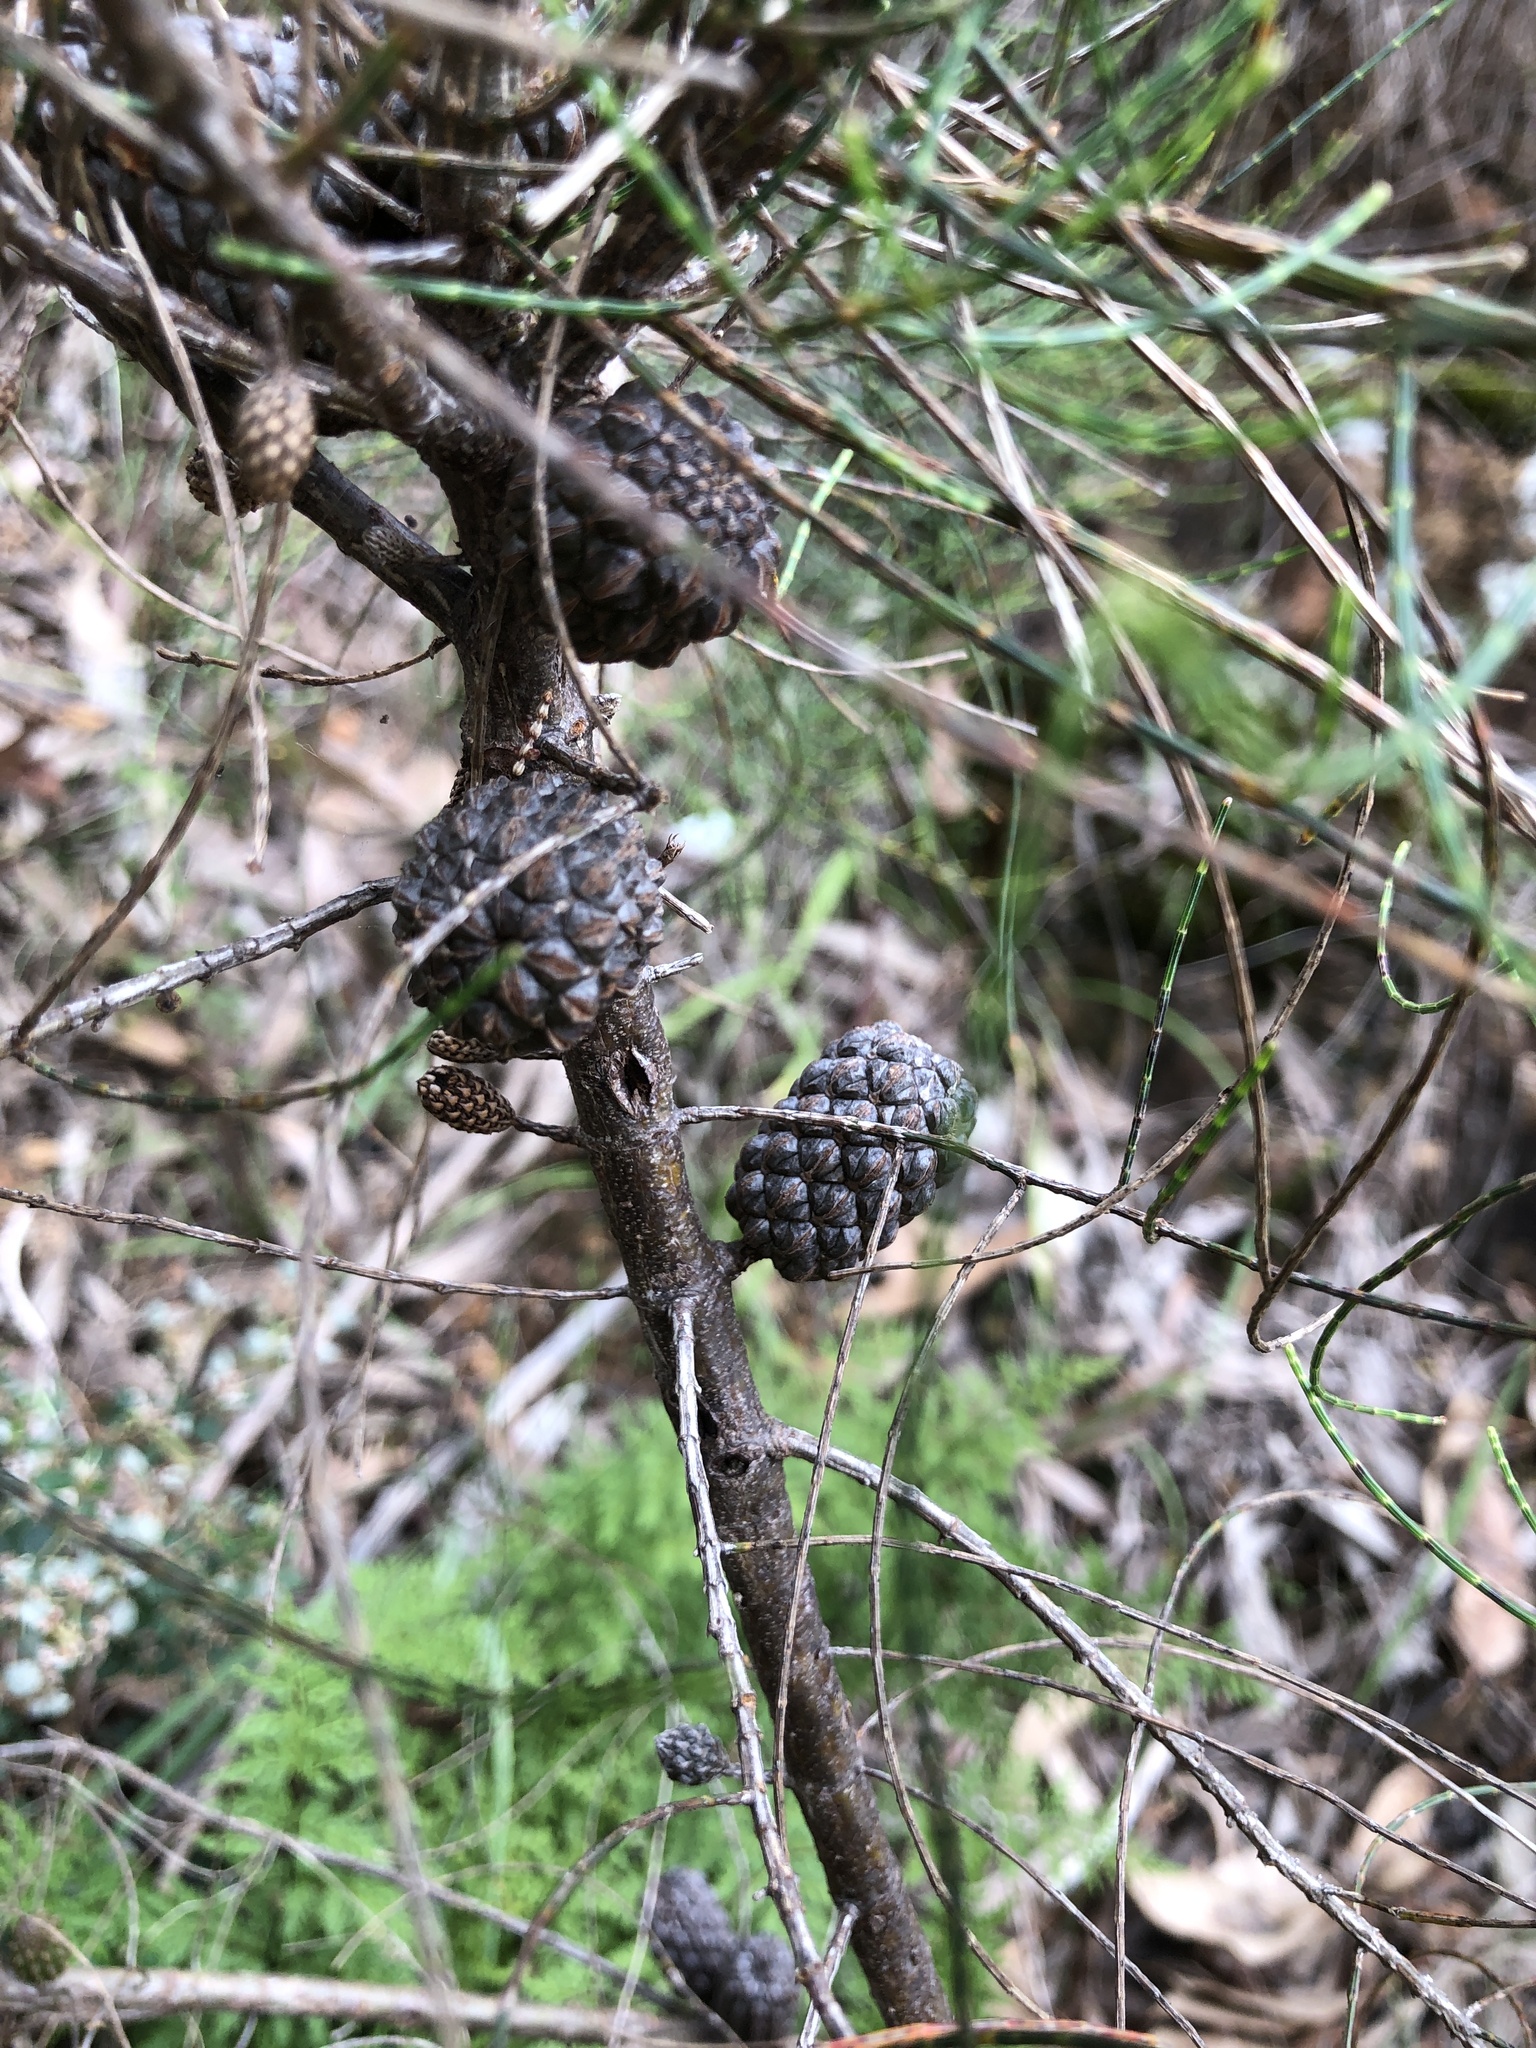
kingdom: Plantae
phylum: Tracheophyta
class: Magnoliopsida
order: Fagales
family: Casuarinaceae
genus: Allocasuarina
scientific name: Allocasuarina muelleriana
